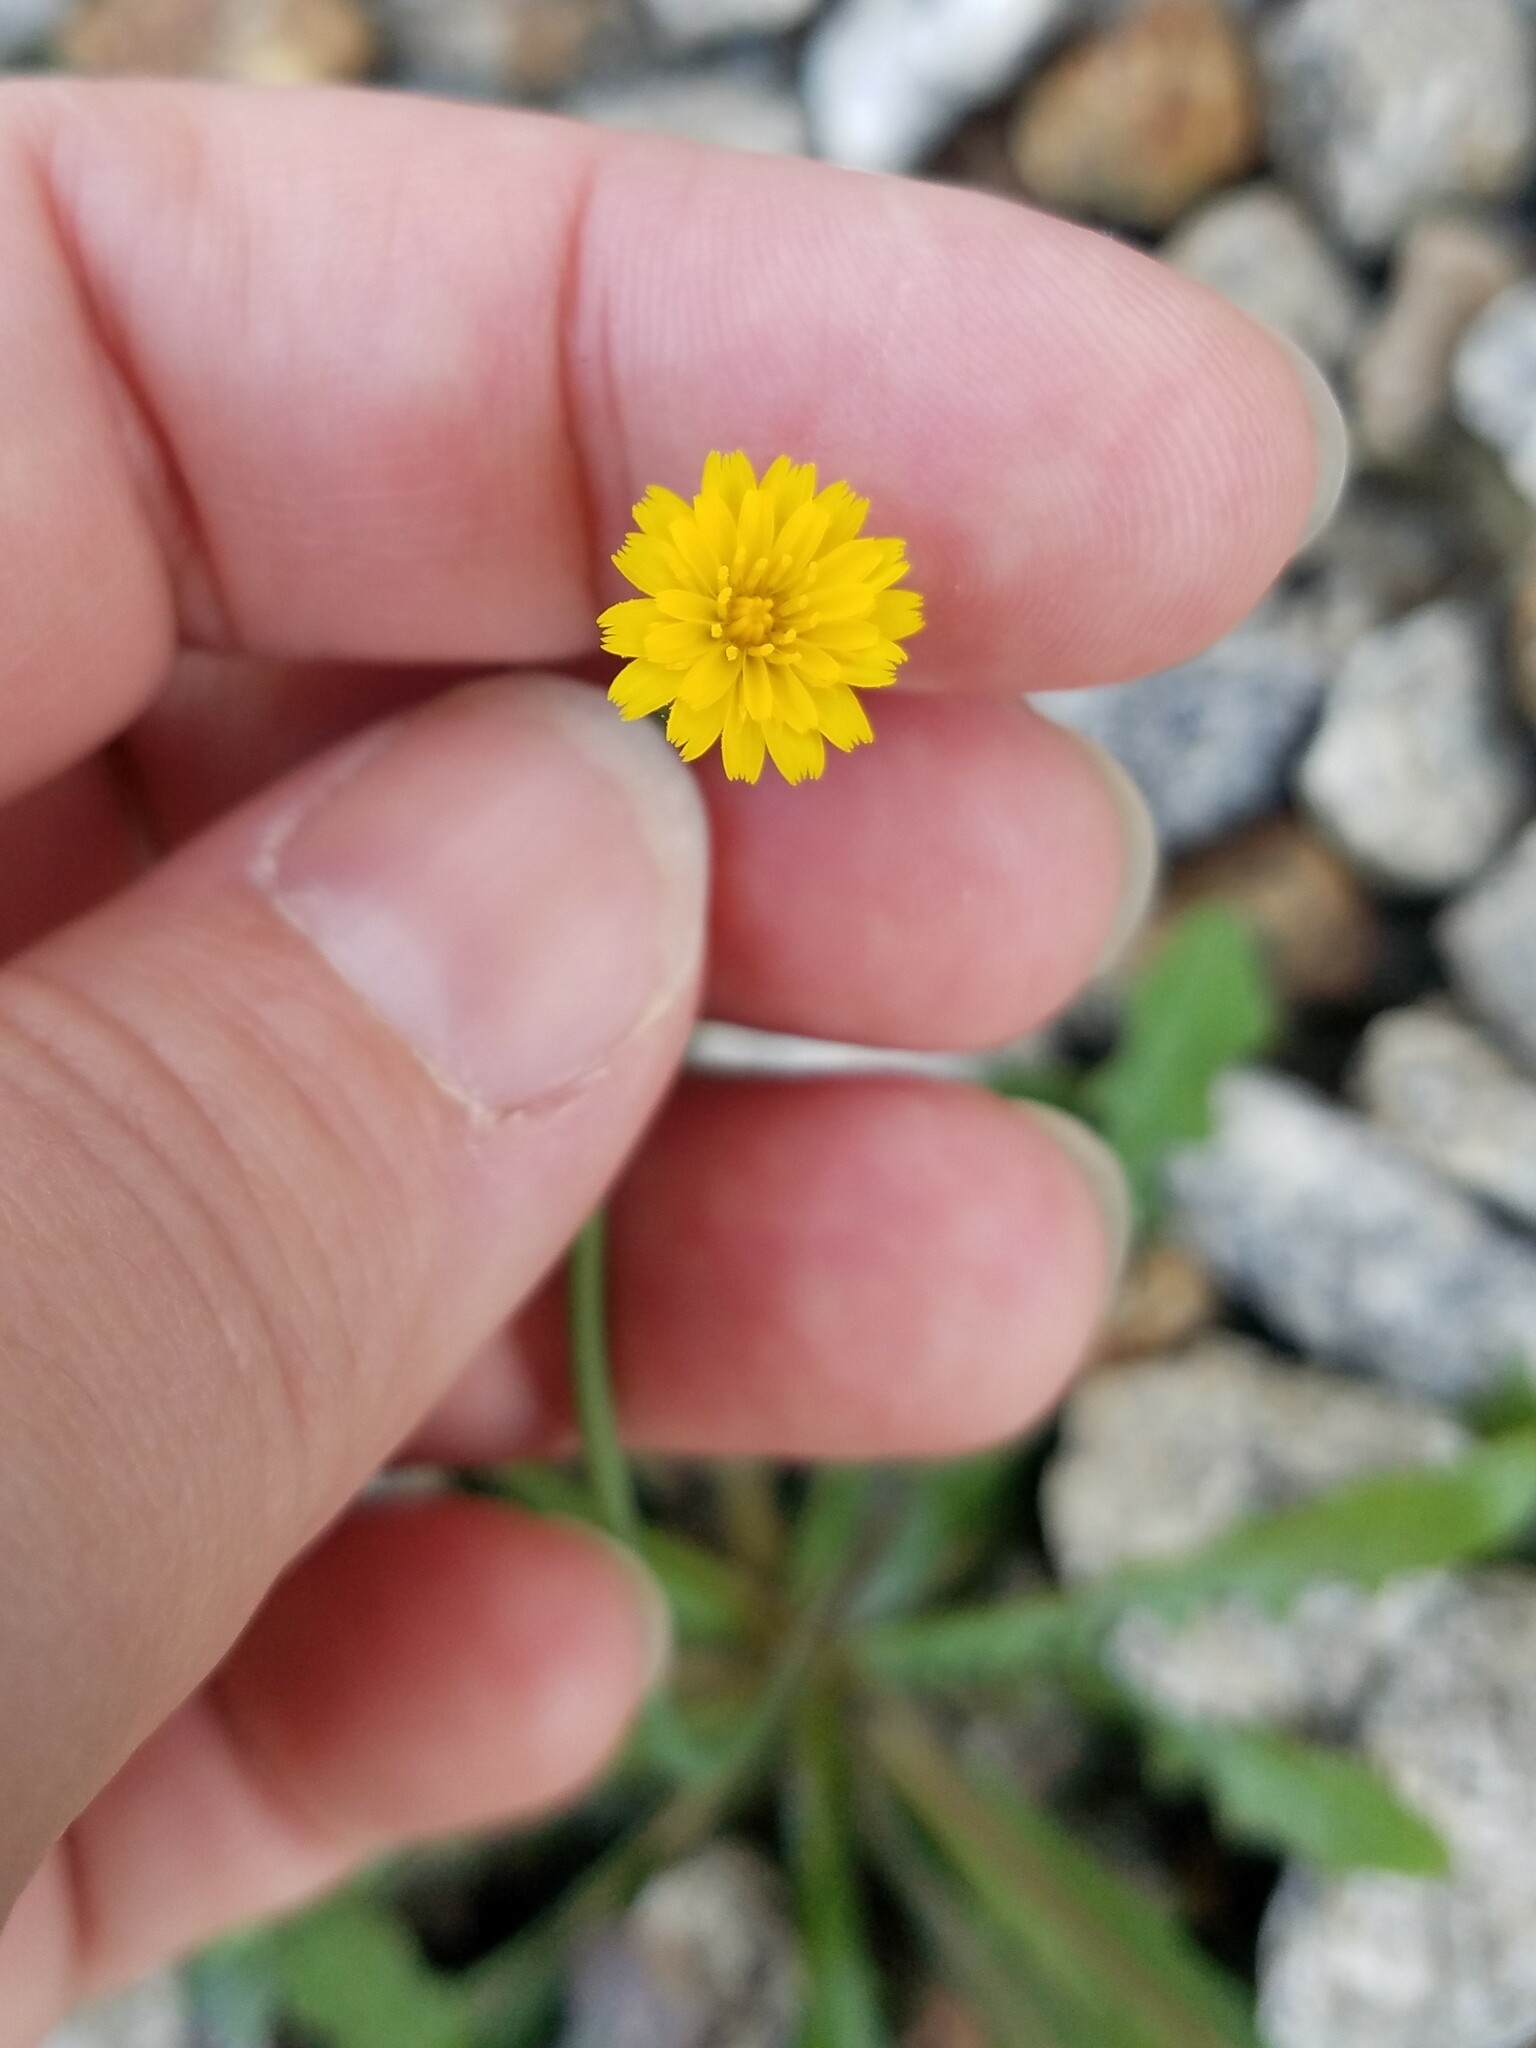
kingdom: Plantae
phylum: Tracheophyta
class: Magnoliopsida
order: Asterales
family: Asteraceae
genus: Hypochaeris
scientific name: Hypochaeris glabra
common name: Smooth catsear
